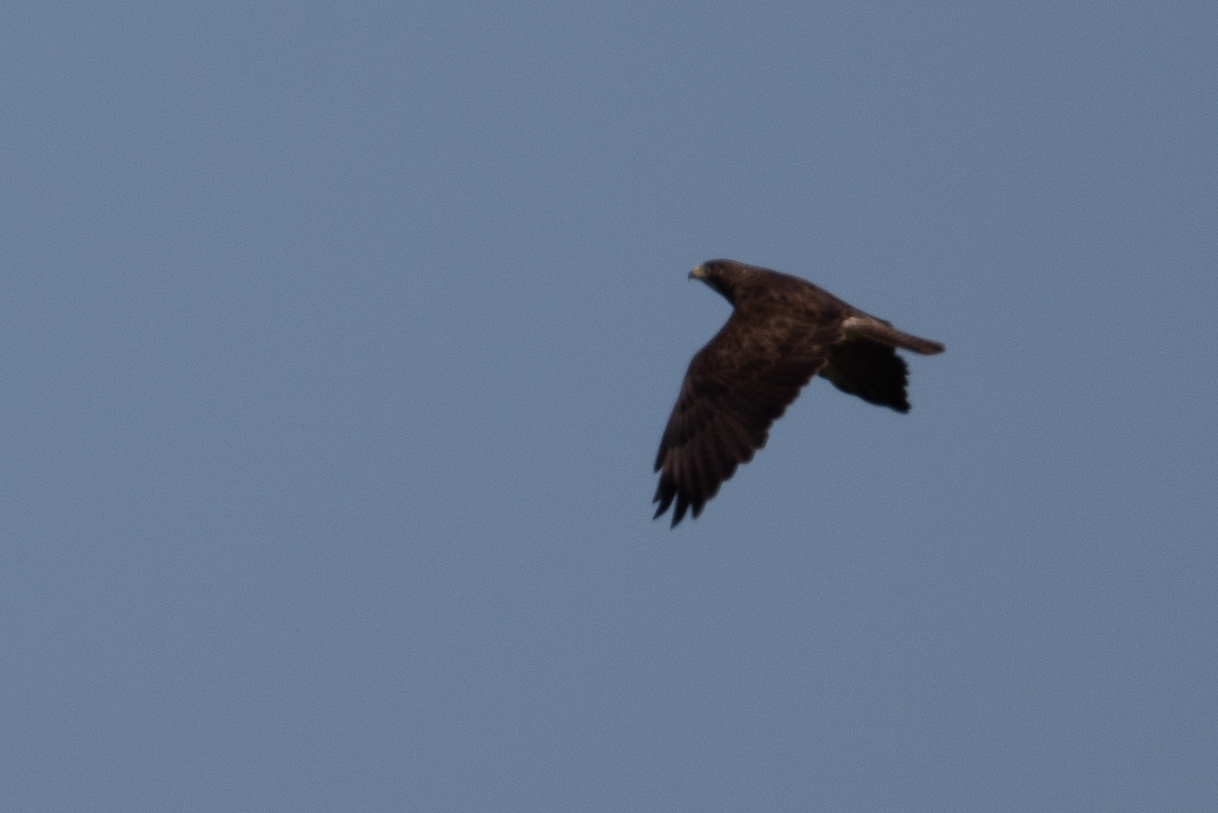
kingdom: Animalia
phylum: Chordata
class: Aves
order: Accipitriformes
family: Accipitridae
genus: Buteo
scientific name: Buteo swainsoni
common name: Swainson's hawk
